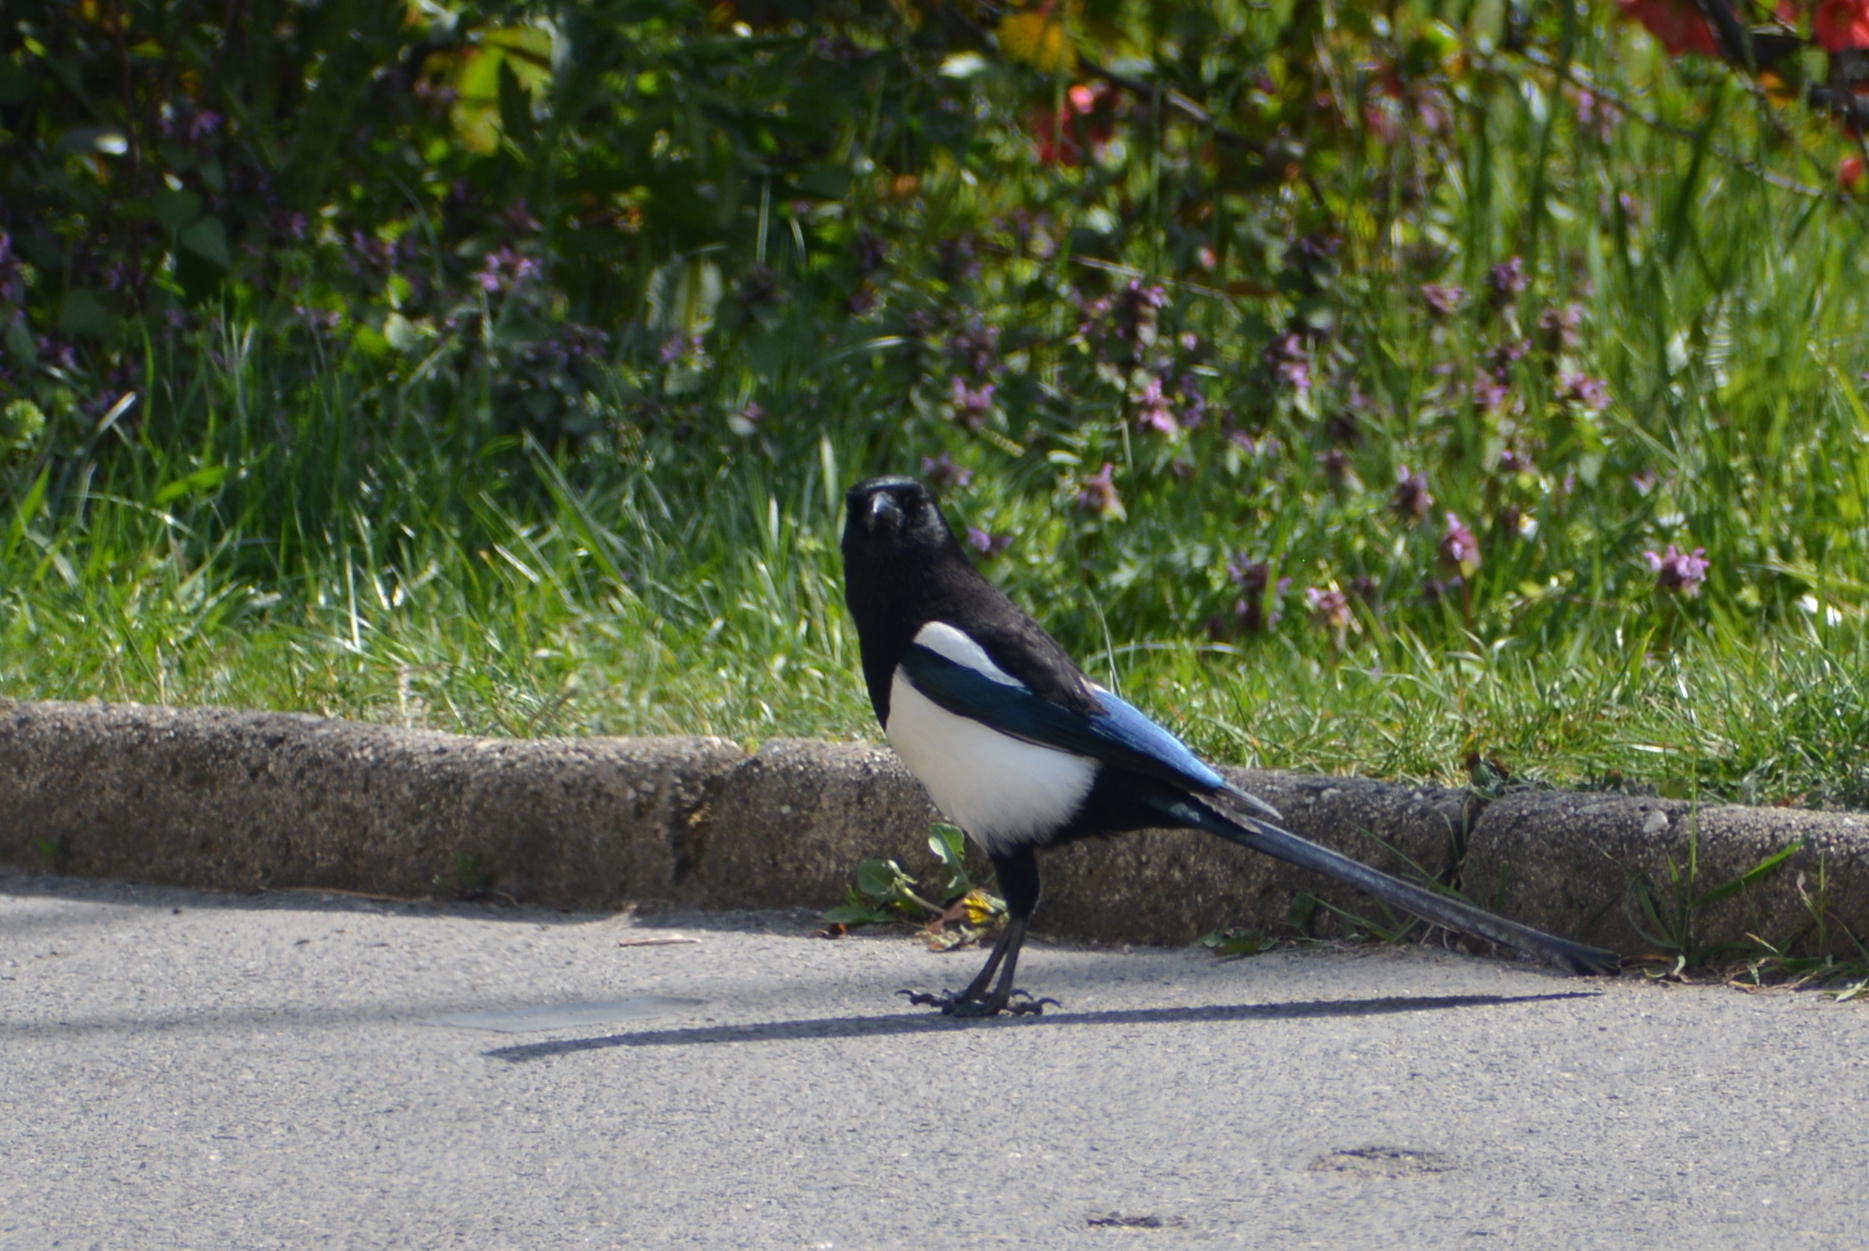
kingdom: Animalia
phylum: Chordata
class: Aves
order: Passeriformes
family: Corvidae
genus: Pica
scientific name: Pica pica
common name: Eurasian magpie
